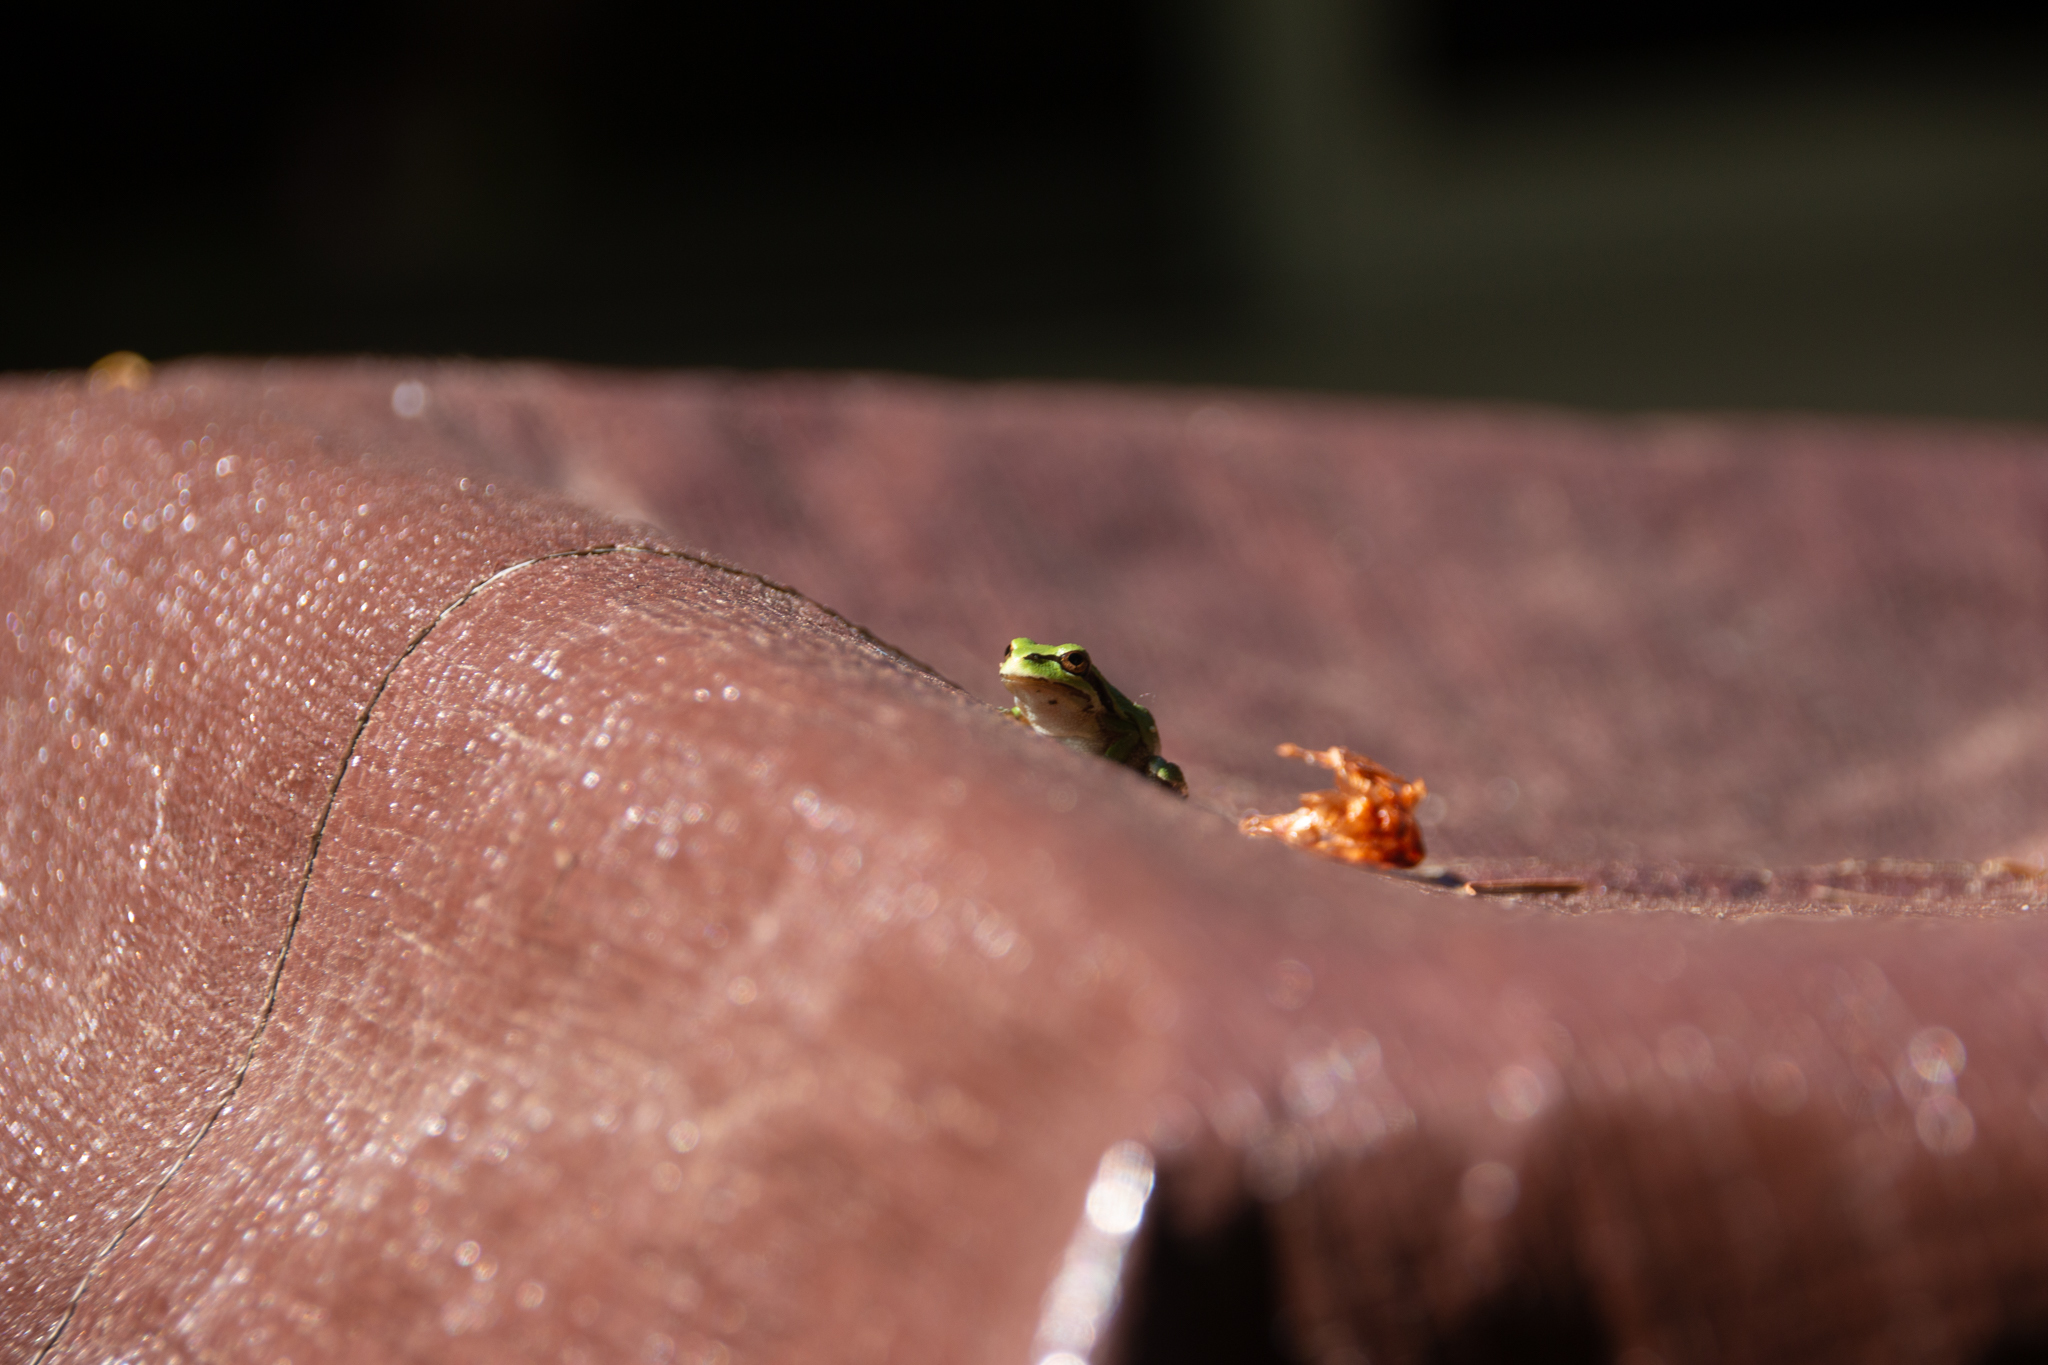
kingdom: Animalia
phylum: Chordata
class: Amphibia
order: Anura
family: Hylidae
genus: Pseudacris
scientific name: Pseudacris regilla
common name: Pacific chorus frog
